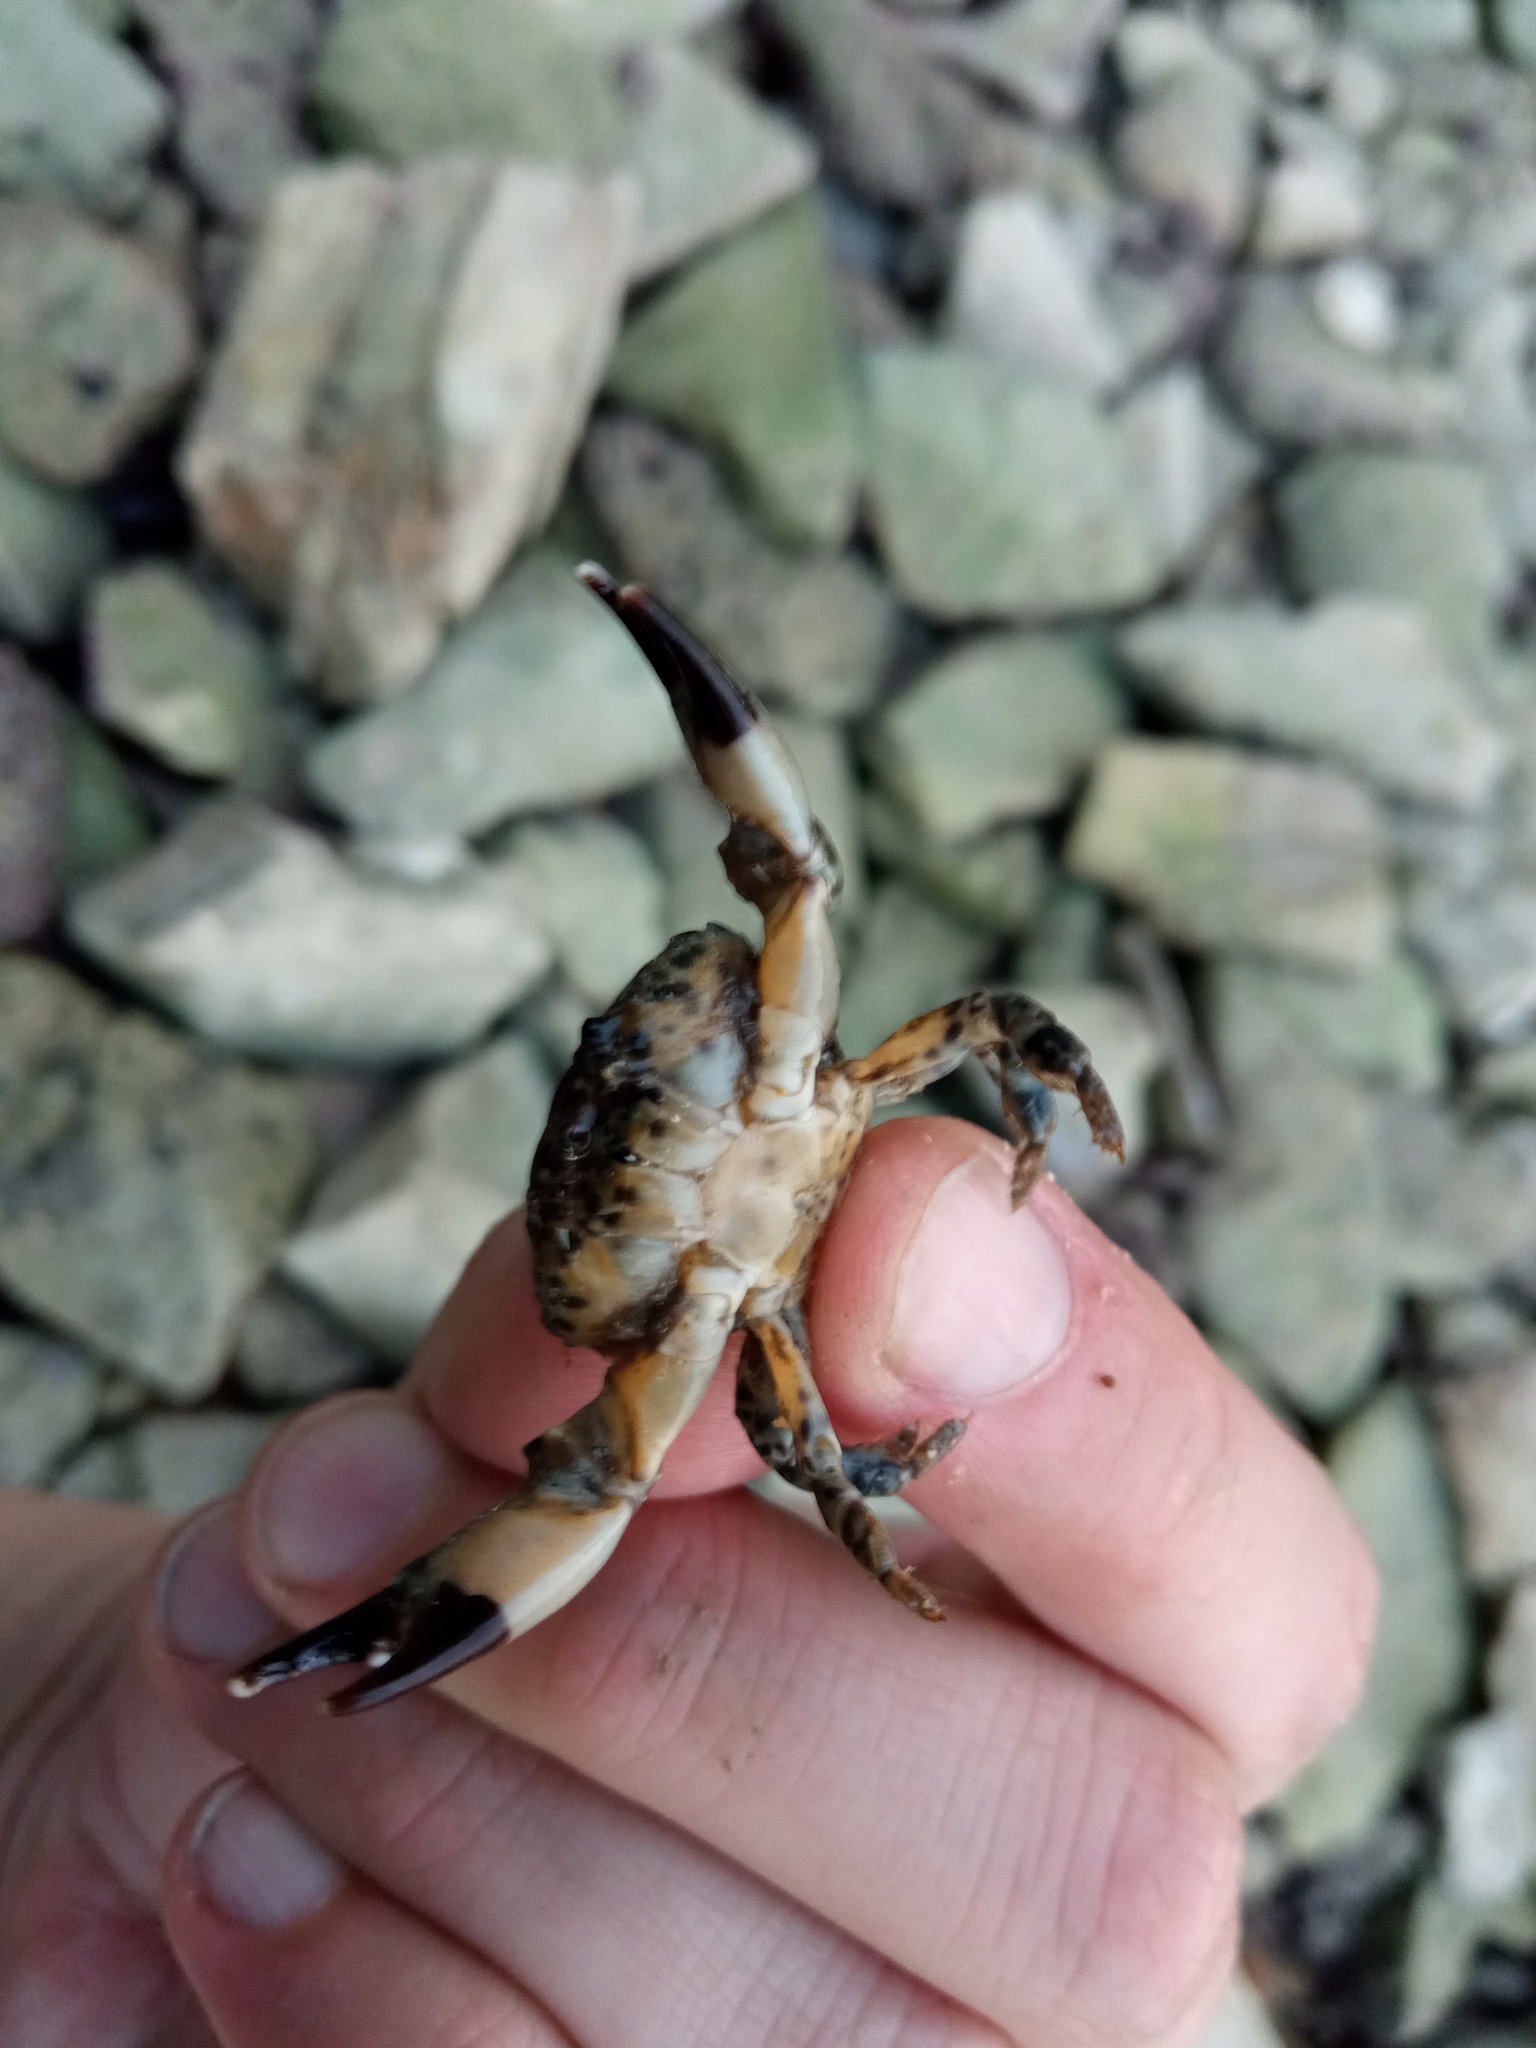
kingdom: Animalia
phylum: Arthropoda
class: Malacostraca
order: Decapoda
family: Xanthidae
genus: Xantho
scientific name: Xantho poressa
